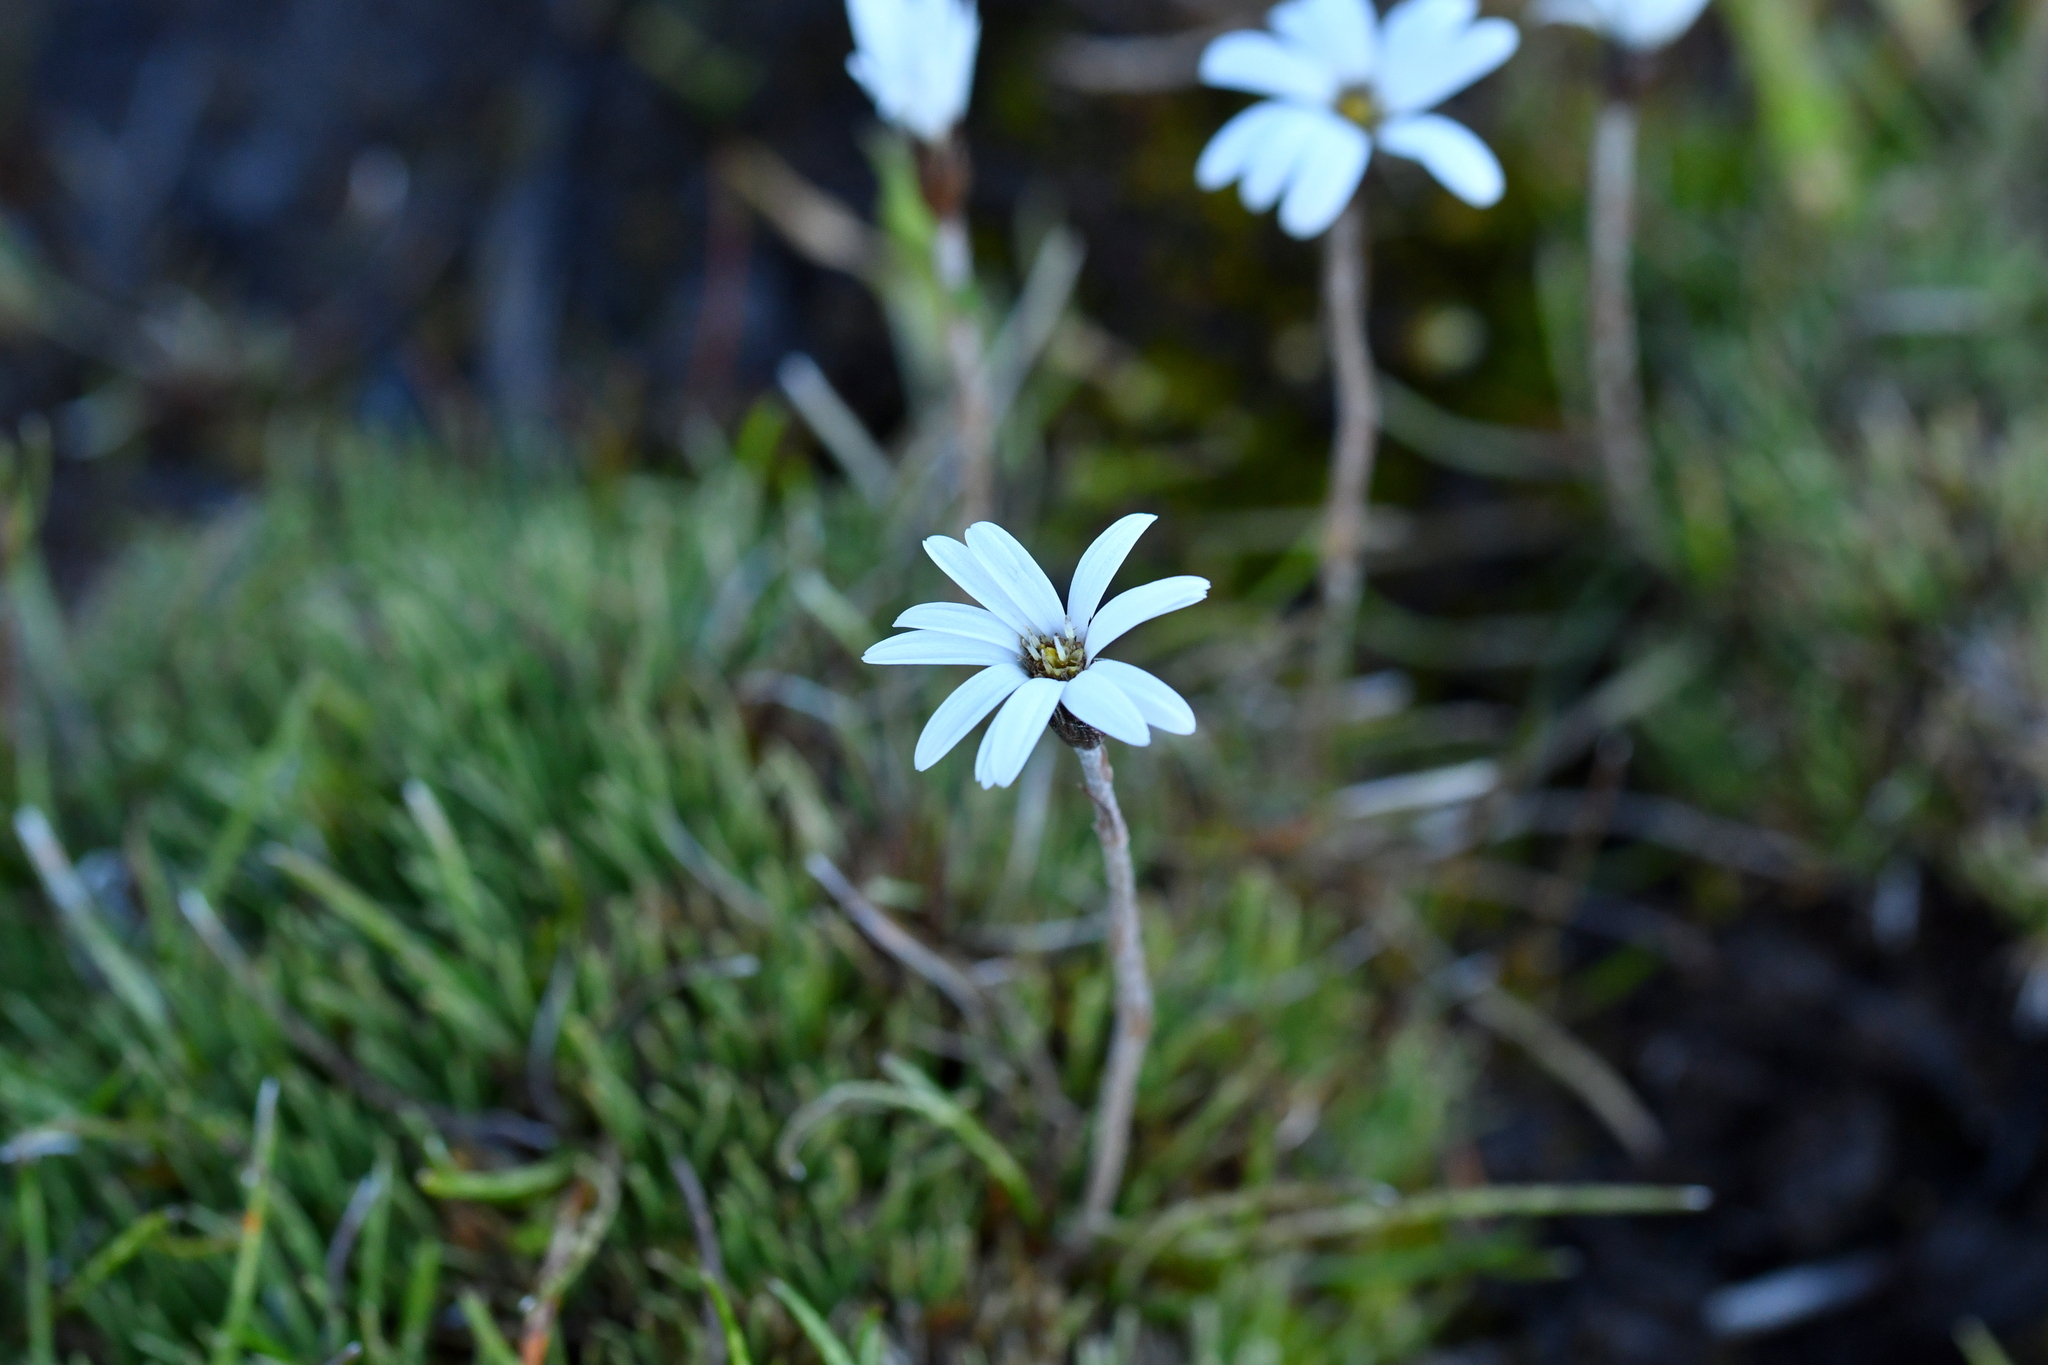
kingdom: Plantae
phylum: Tracheophyta
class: Magnoliopsida
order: Asterales
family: Asteraceae
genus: Celmisia
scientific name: Celmisia alpina
